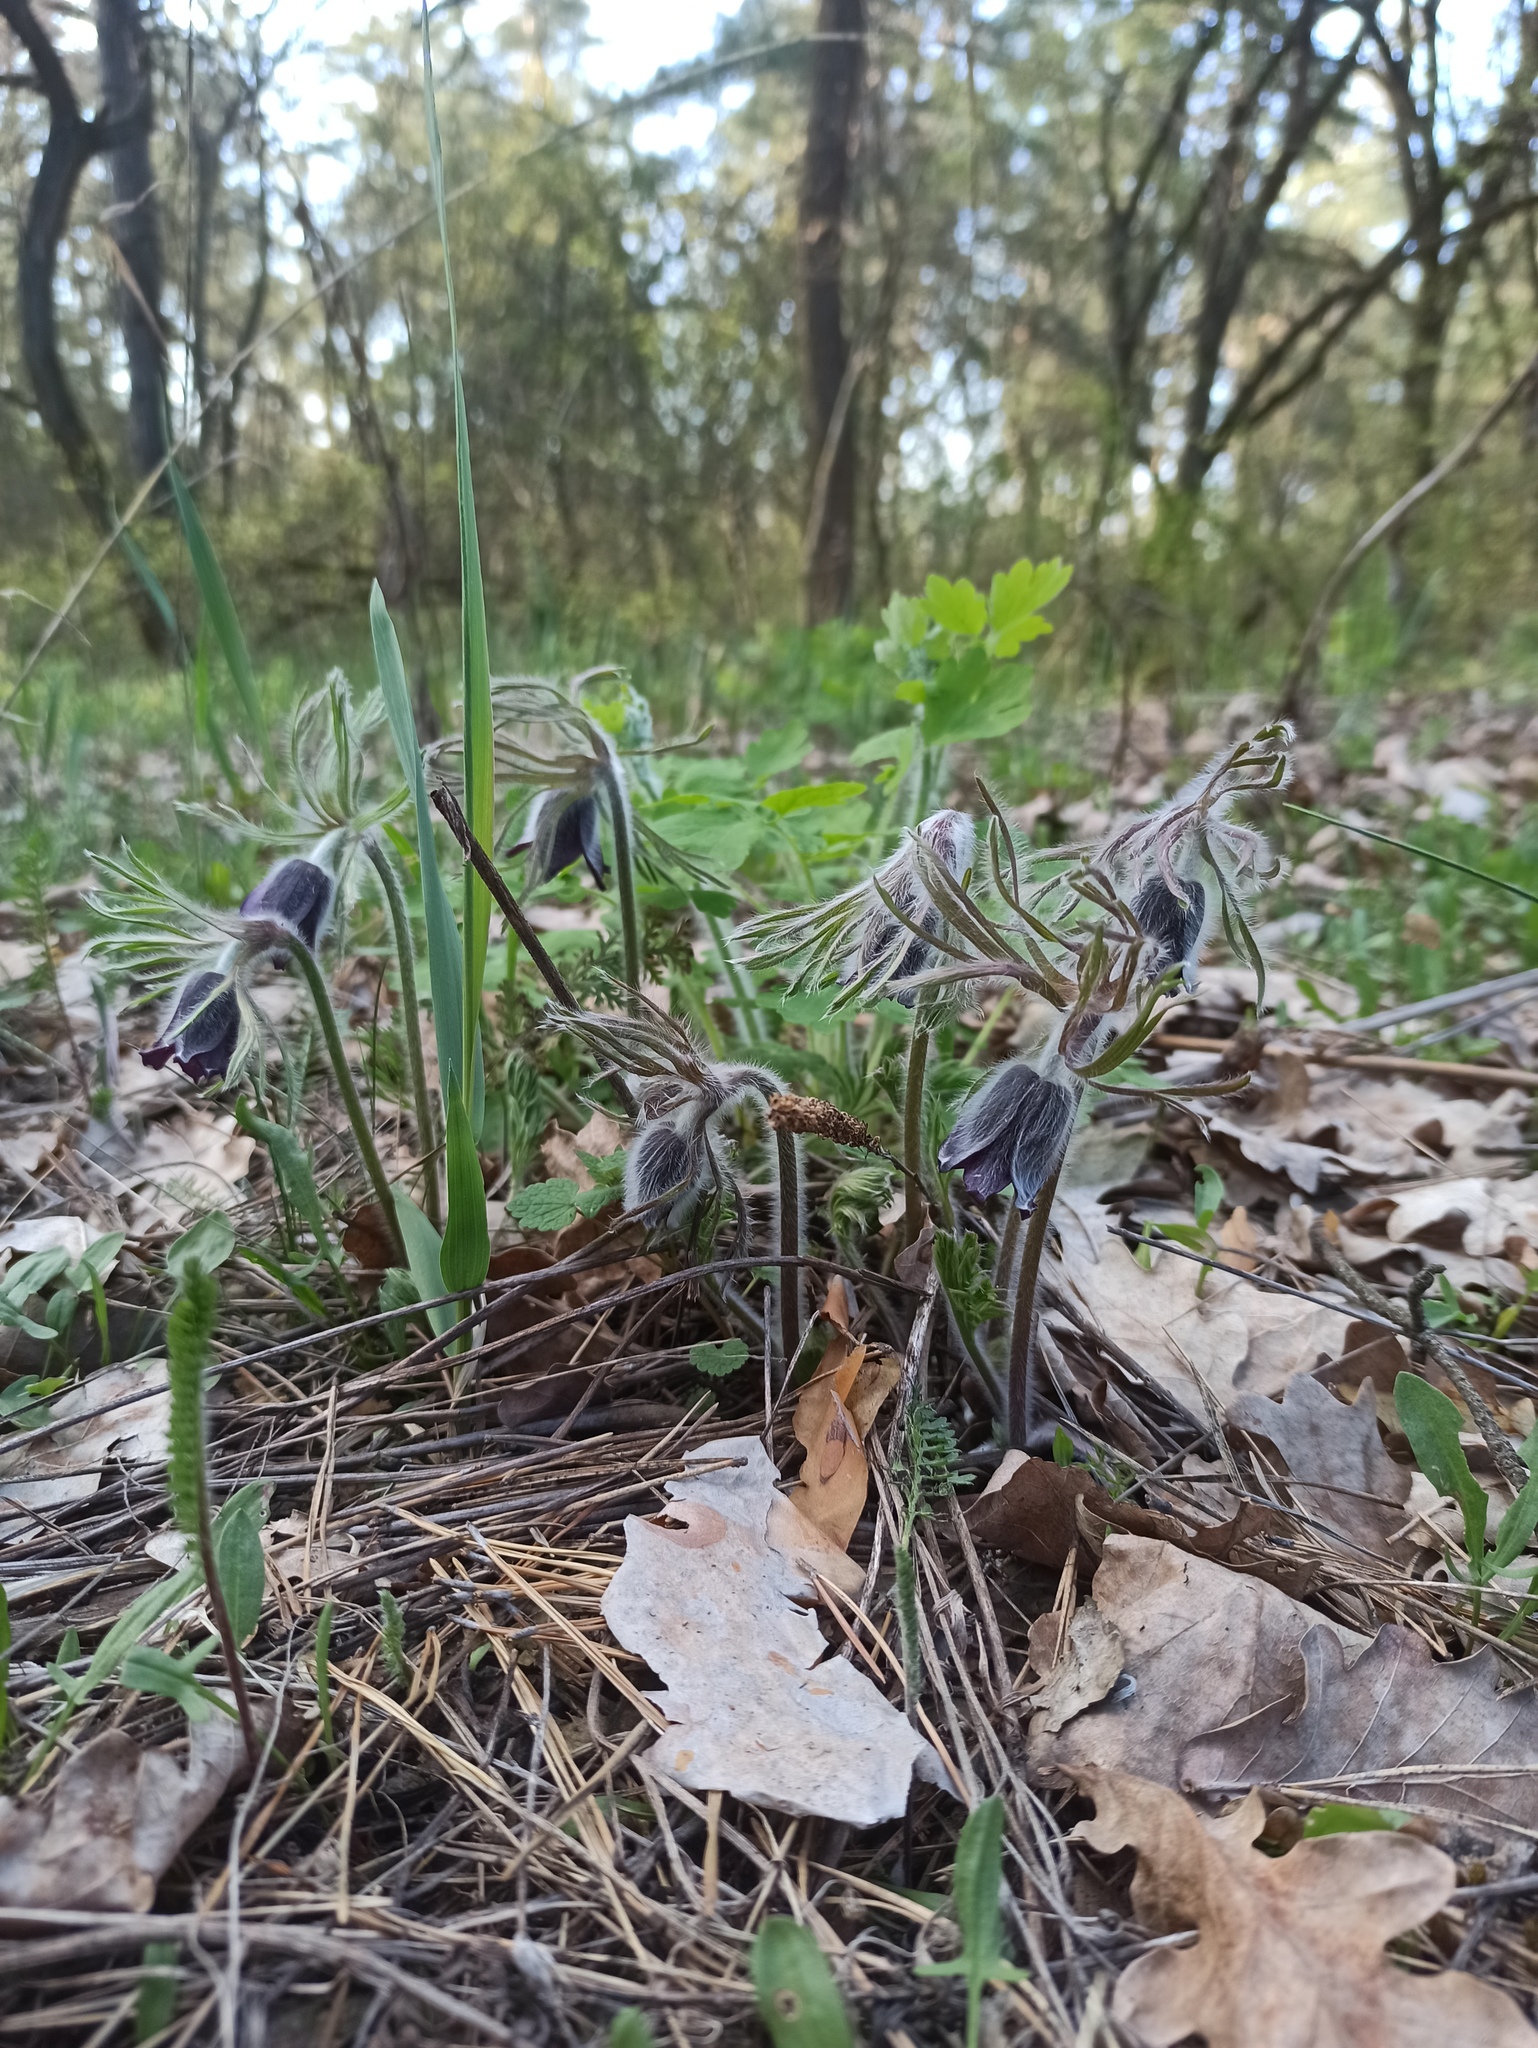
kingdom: Plantae
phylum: Tracheophyta
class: Magnoliopsida
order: Ranunculales
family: Ranunculaceae
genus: Pulsatilla
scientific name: Pulsatilla pratensis
